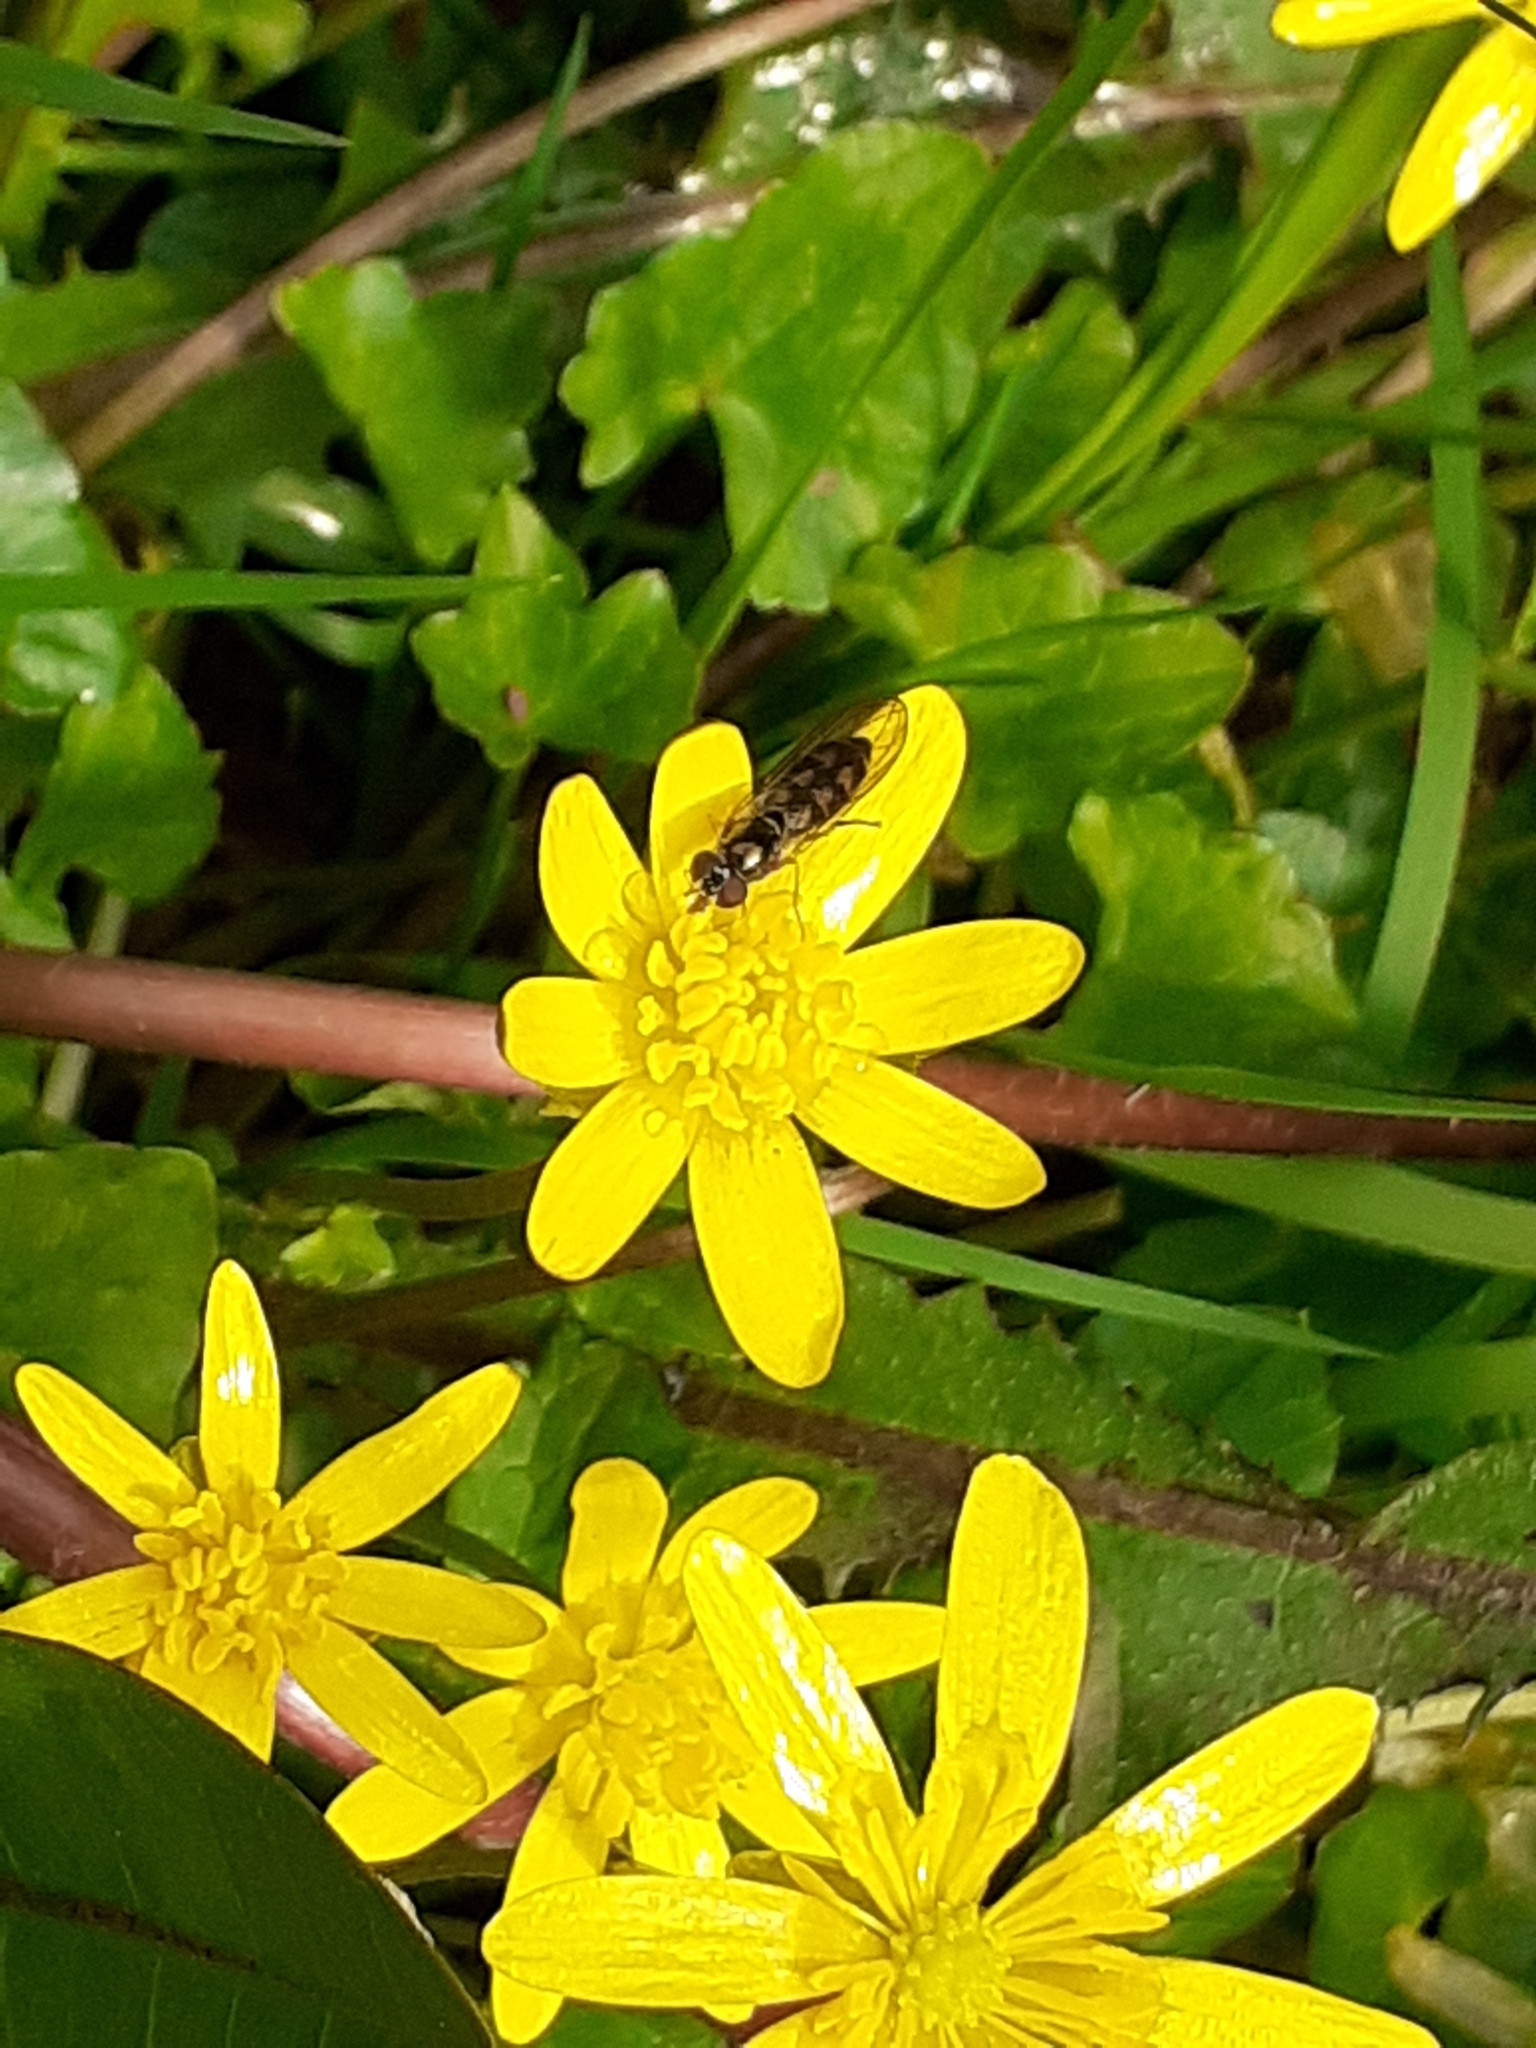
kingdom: Plantae
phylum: Tracheophyta
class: Magnoliopsida
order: Ranunculales
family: Ranunculaceae
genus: Ficaria
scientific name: Ficaria verna
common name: Lesser celandine
